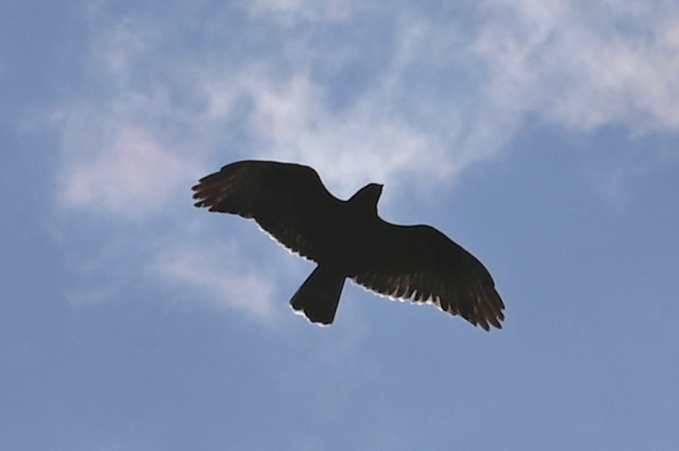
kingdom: Animalia
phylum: Chordata
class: Aves
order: Accipitriformes
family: Accipitridae
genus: Buteo
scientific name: Buteo buteo
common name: Common buzzard
